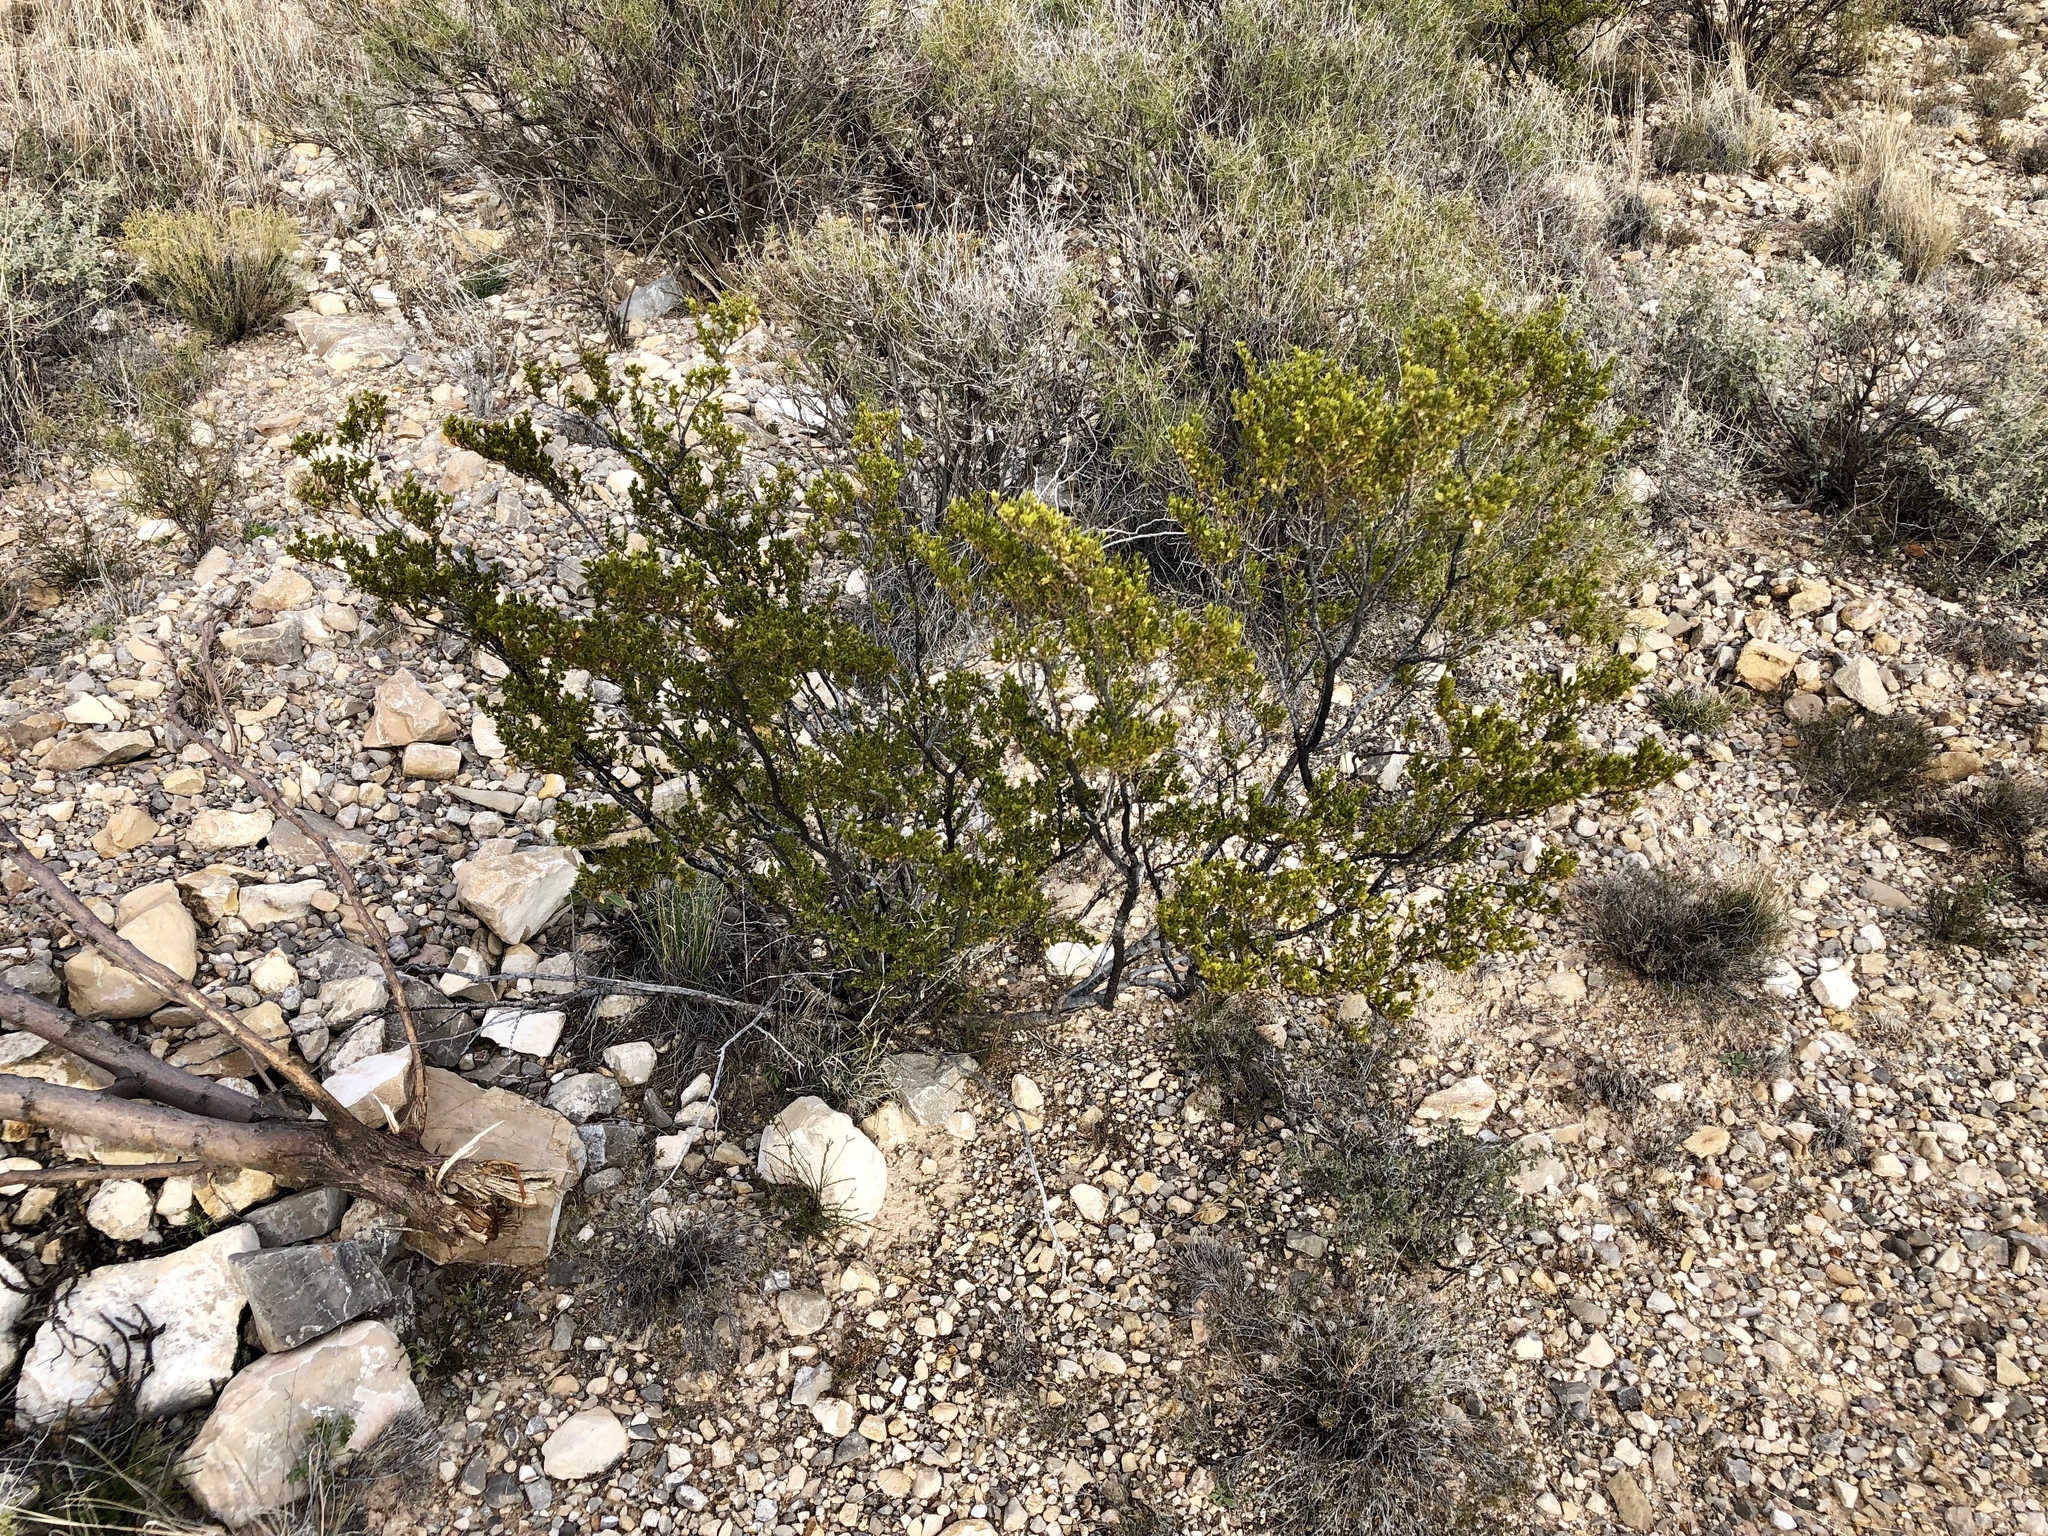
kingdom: Plantae
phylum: Tracheophyta
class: Magnoliopsida
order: Zygophyllales
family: Zygophyllaceae
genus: Larrea
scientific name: Larrea tridentata
